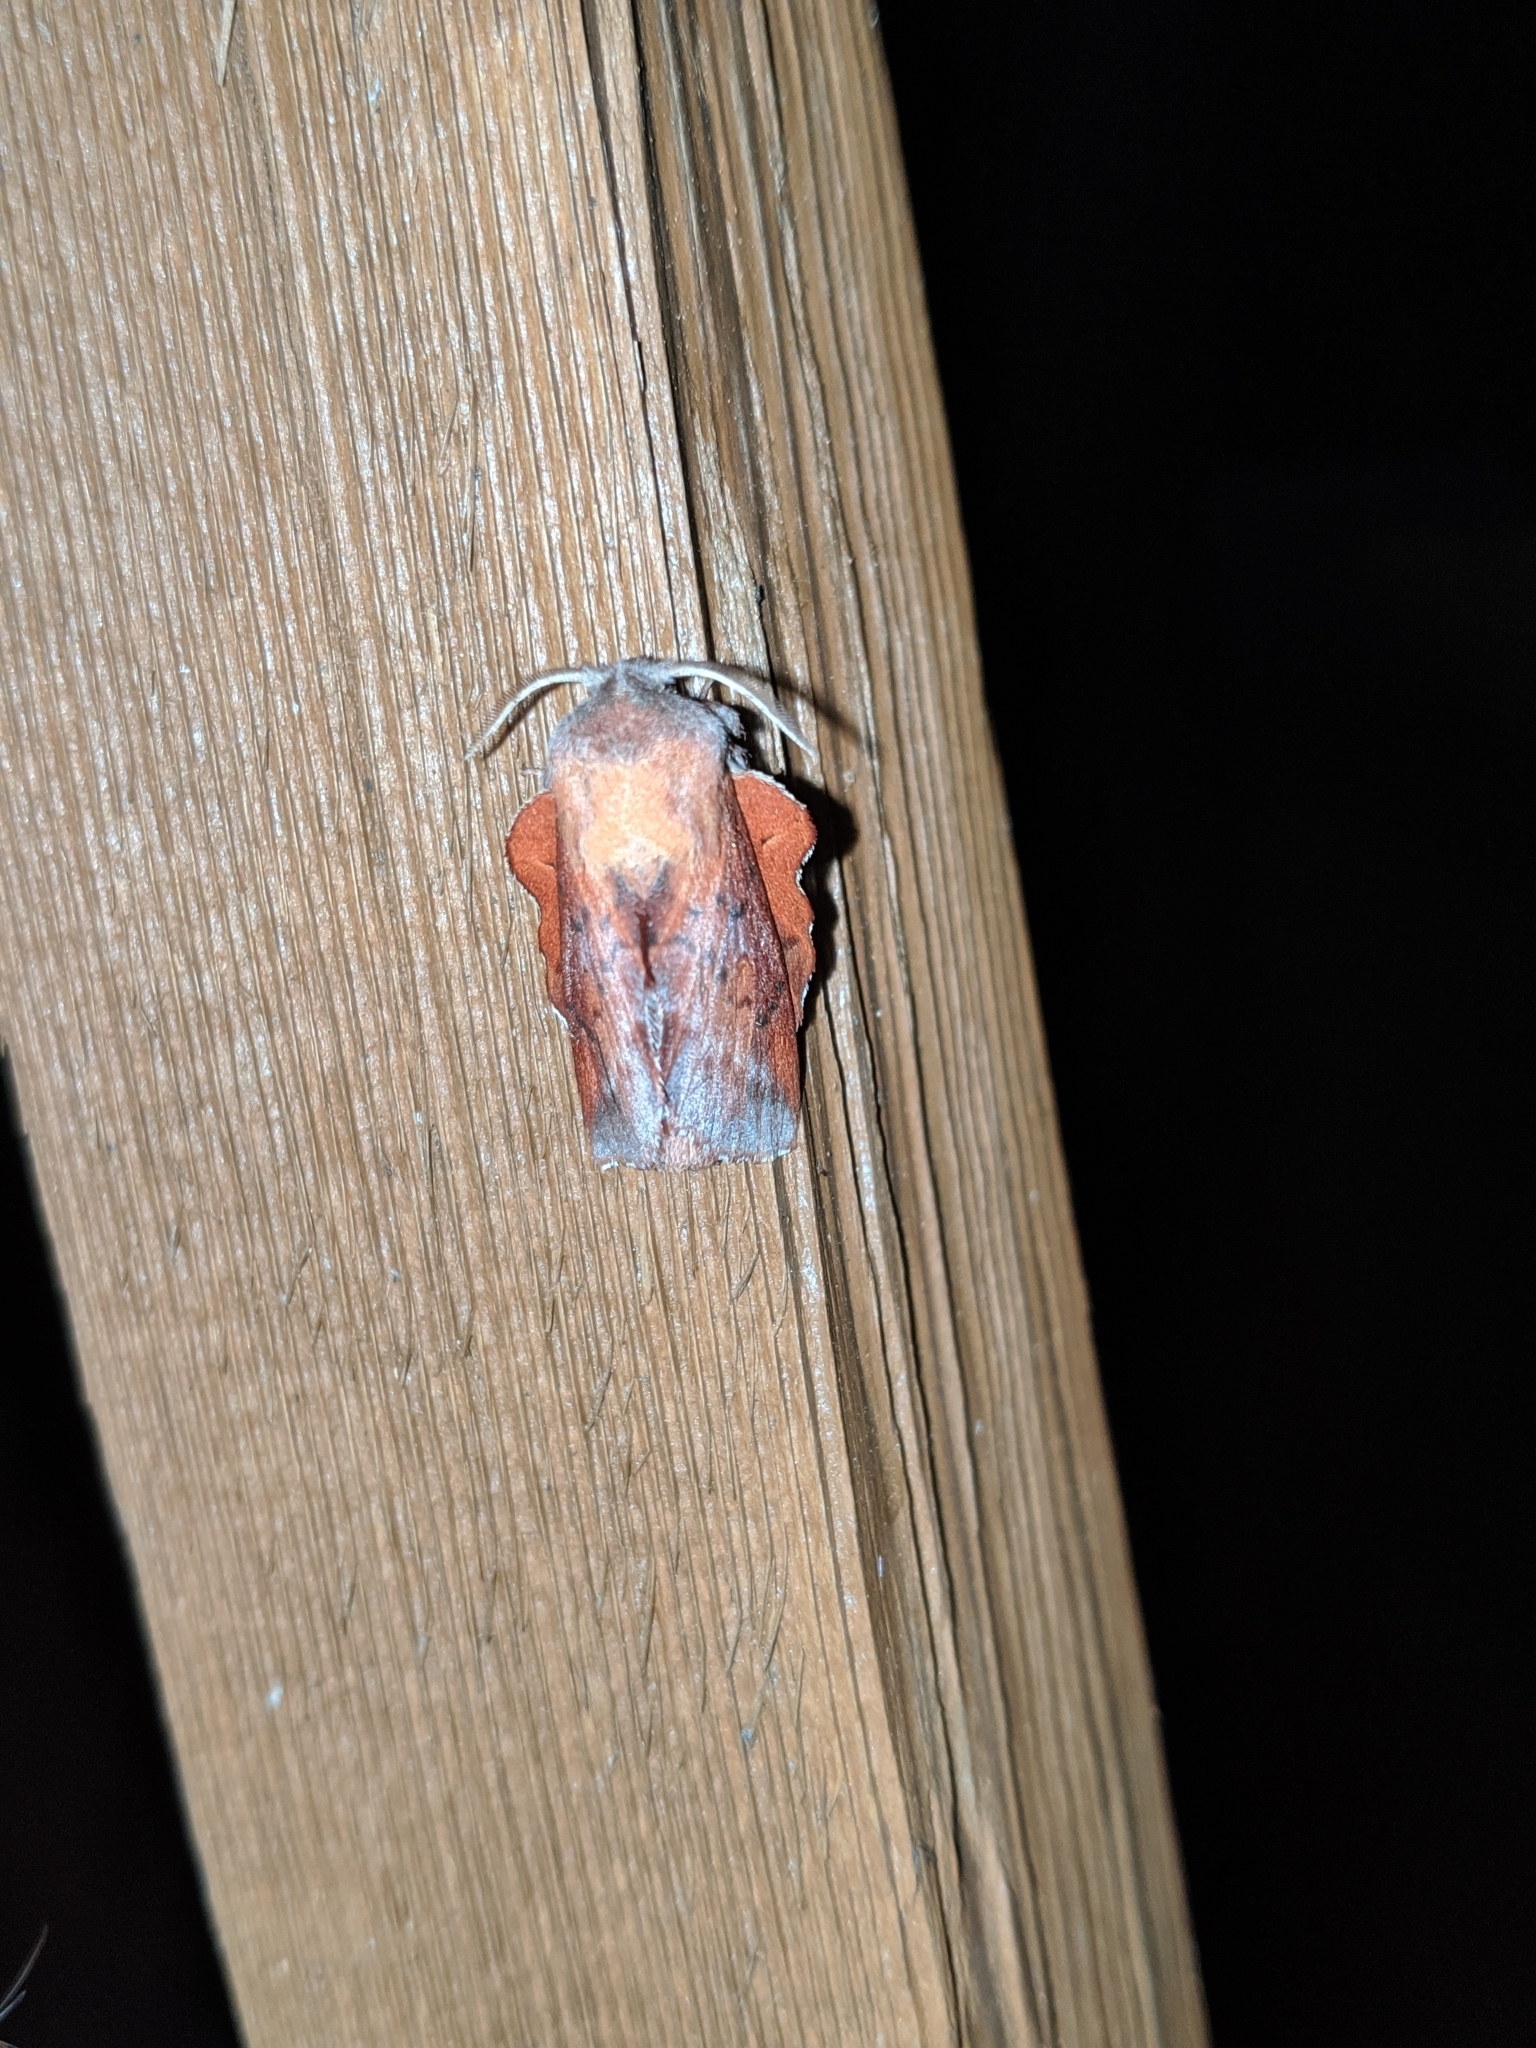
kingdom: Animalia
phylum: Arthropoda
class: Insecta
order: Lepidoptera
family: Lasiocampidae
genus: Phyllodesma
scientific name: Phyllodesma americana
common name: American lappet moth
